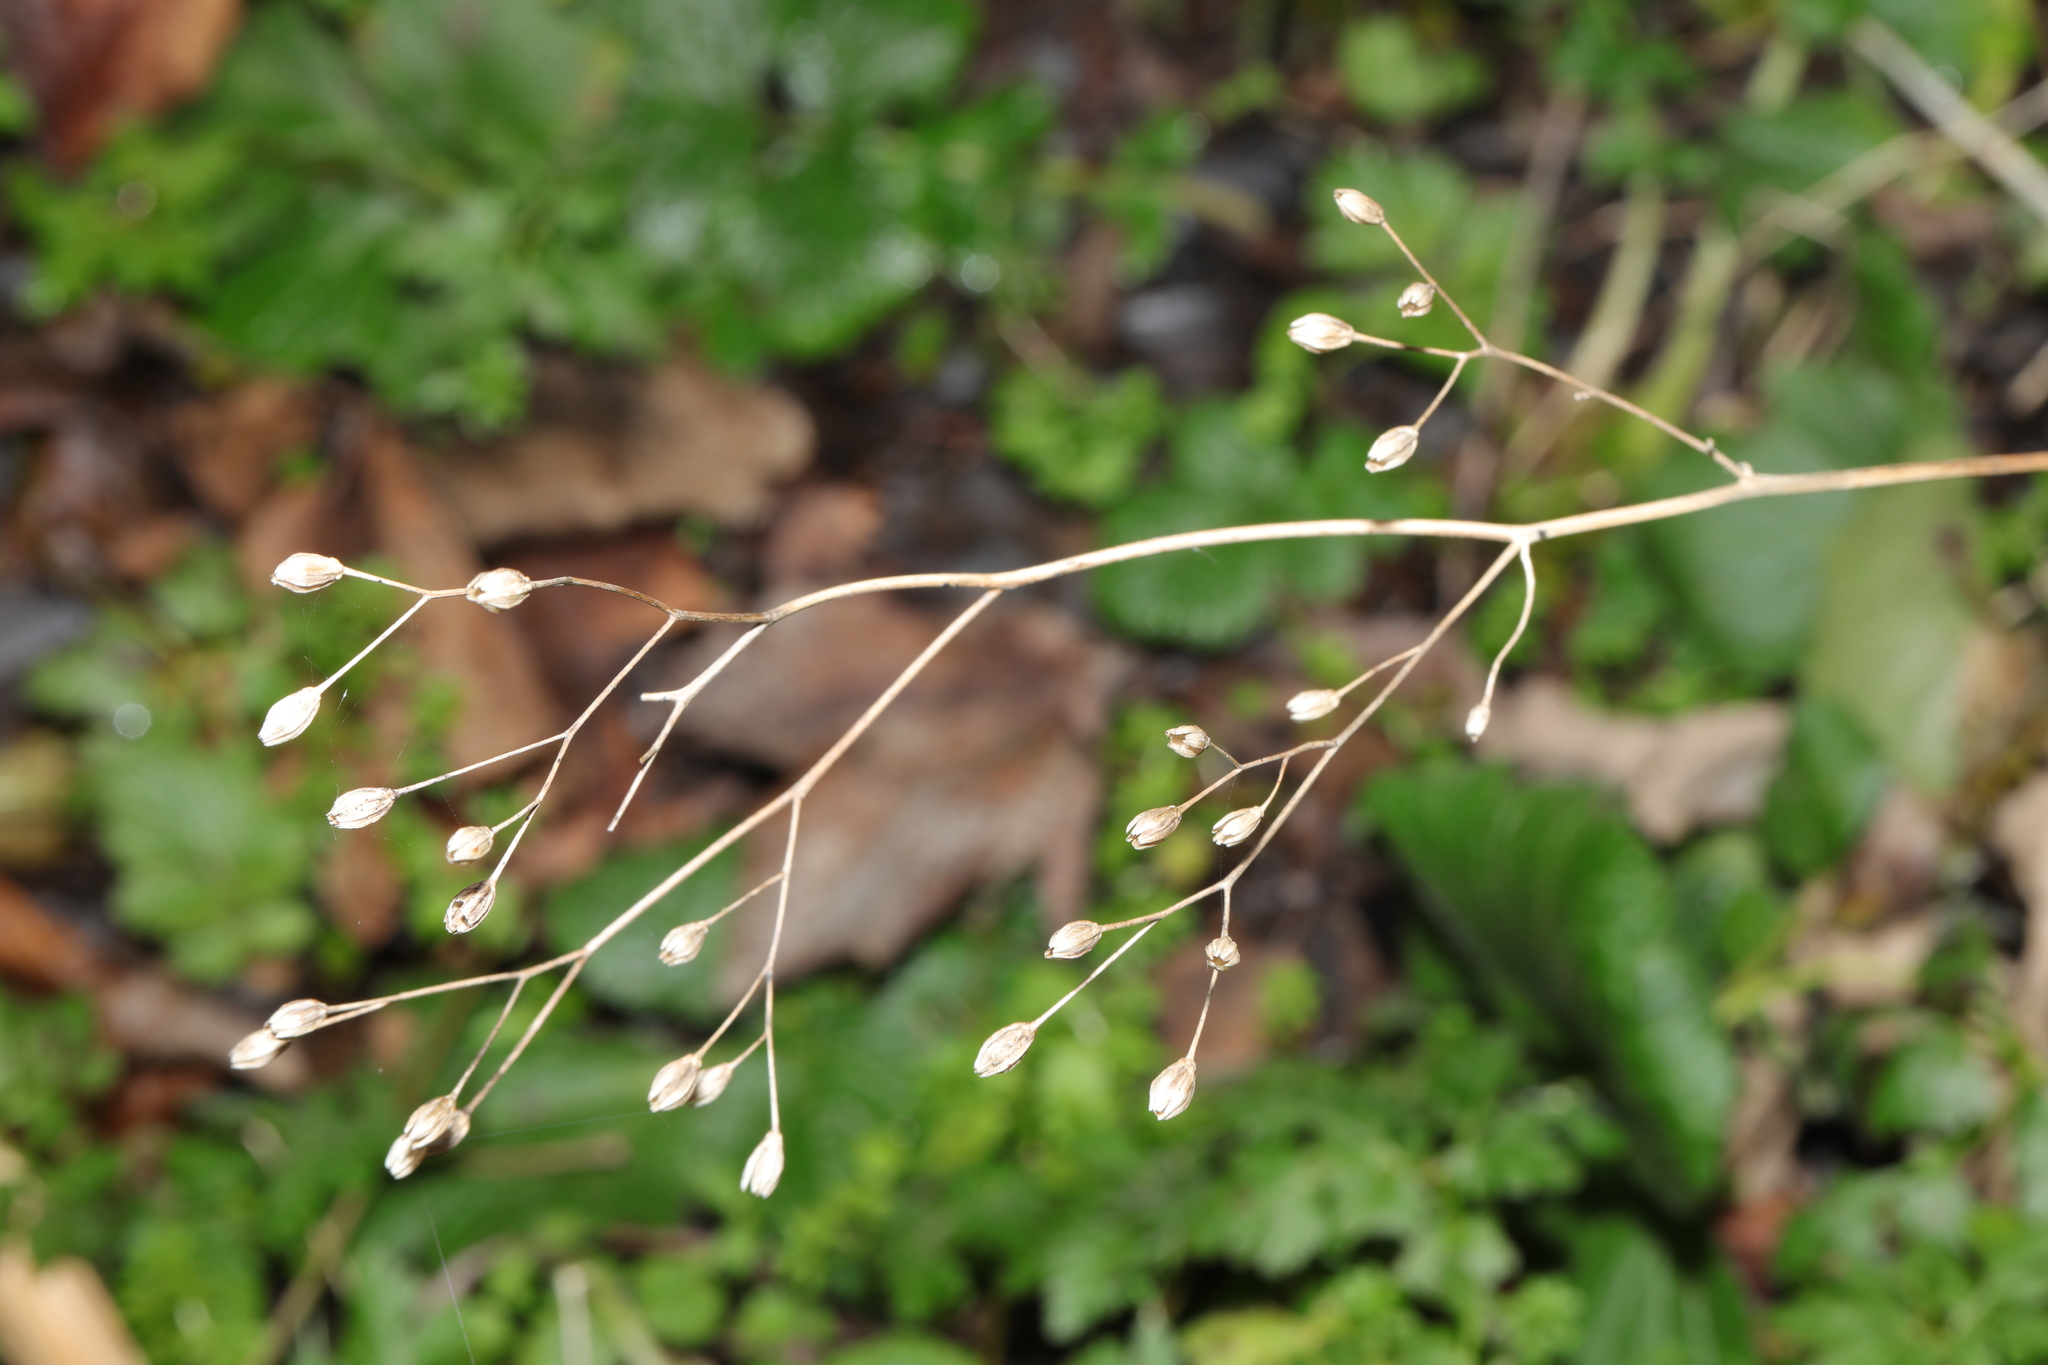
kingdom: Plantae
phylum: Tracheophyta
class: Magnoliopsida
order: Asterales
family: Asteraceae
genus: Lapsana
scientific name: Lapsana communis
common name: Nipplewort
